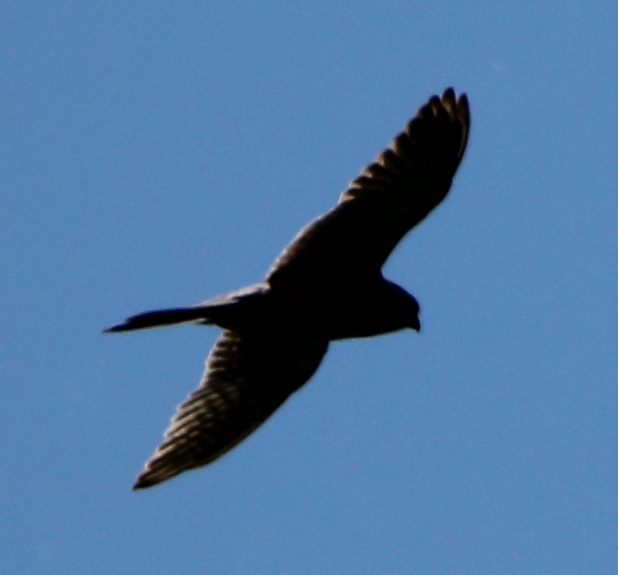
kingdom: Animalia
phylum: Chordata
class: Aves
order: Falconiformes
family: Falconidae
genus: Falco
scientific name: Falco tinnunculus
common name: Common kestrel
